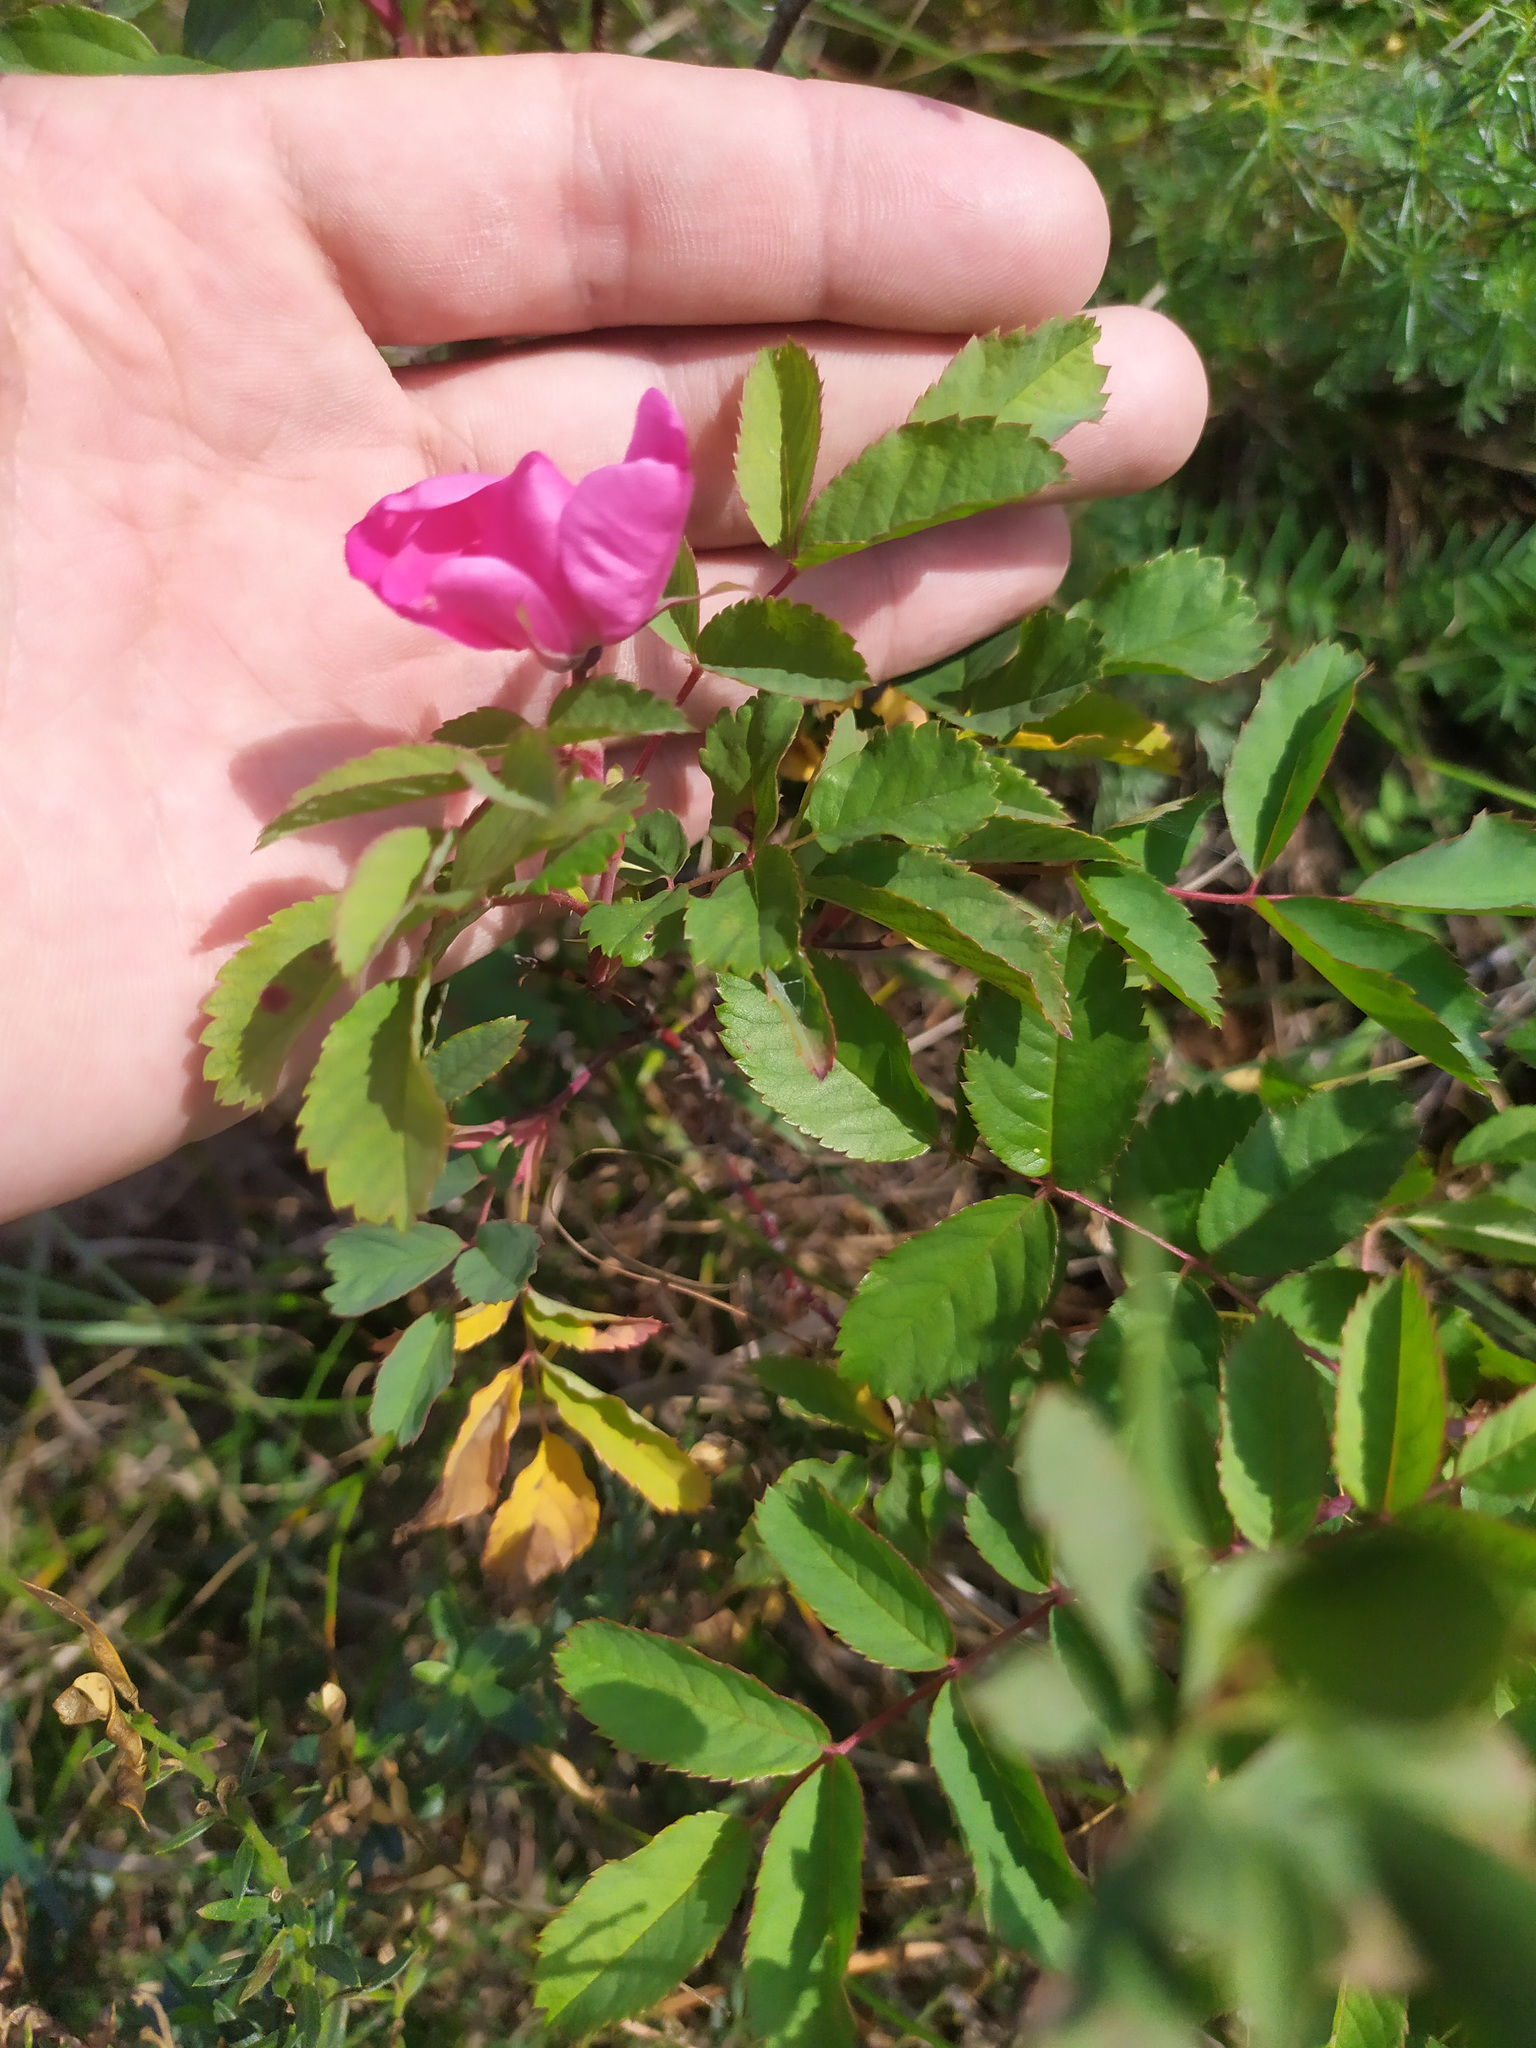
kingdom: Plantae
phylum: Tracheophyta
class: Magnoliopsida
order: Rosales
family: Rosaceae
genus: Rosa
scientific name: Rosa glabrifolia
